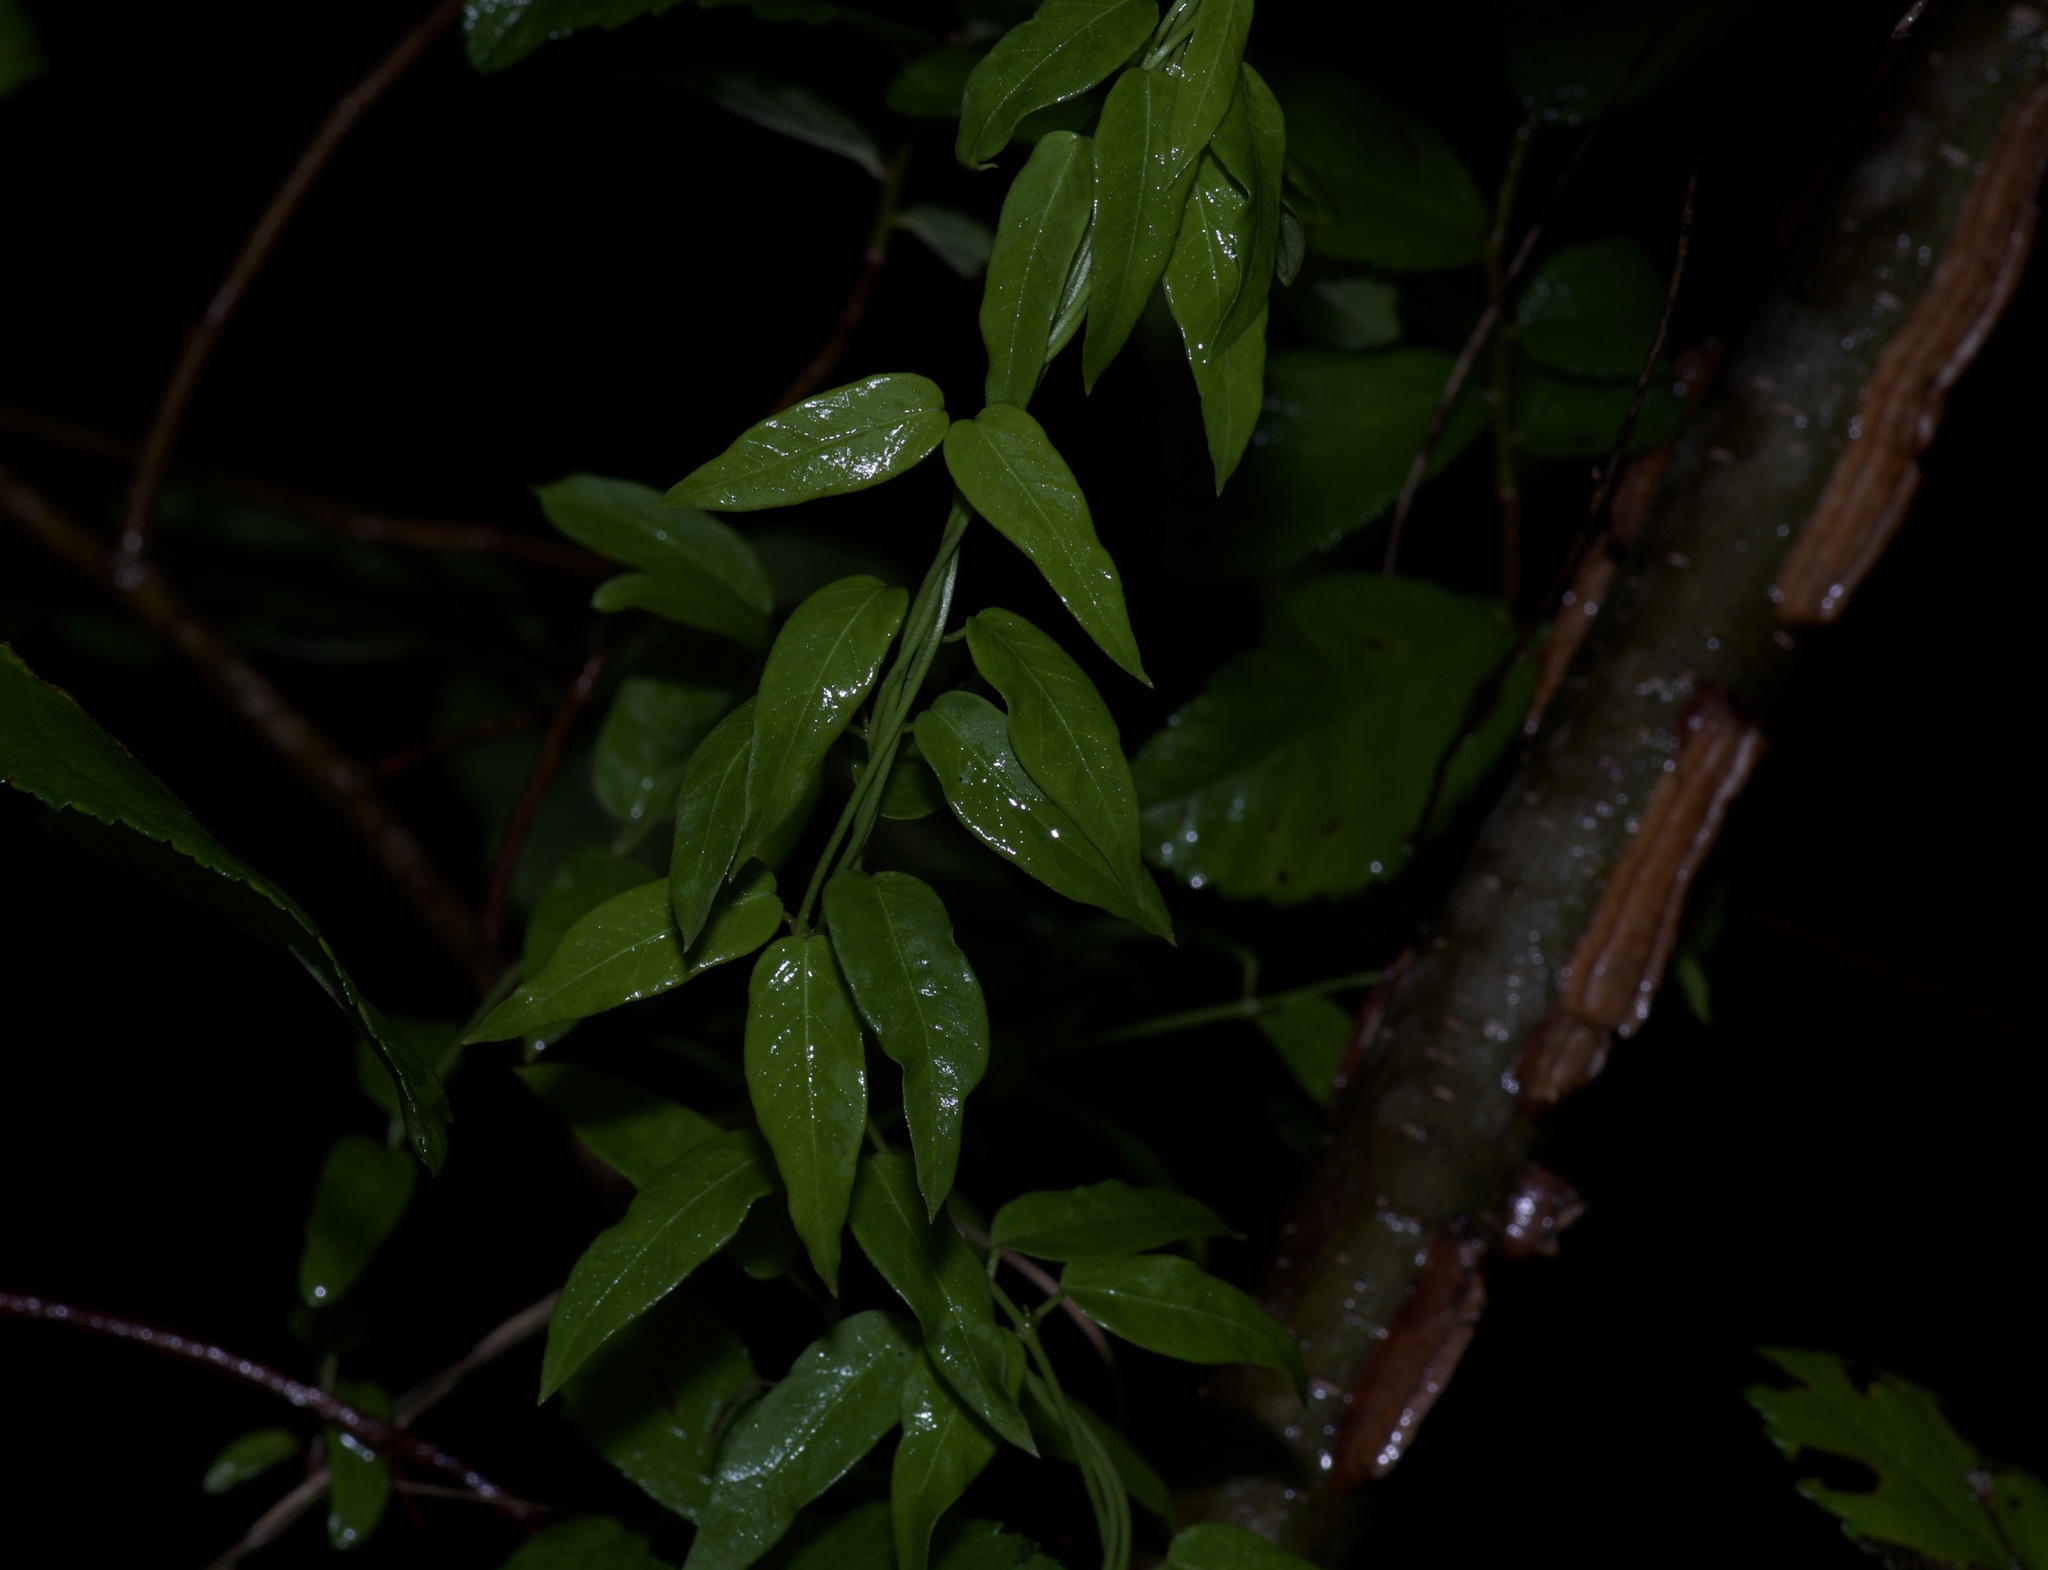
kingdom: Plantae
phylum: Tracheophyta
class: Magnoliopsida
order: Gentianales
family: Apocynaceae
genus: Metastelma
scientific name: Metastelma barbigerum
